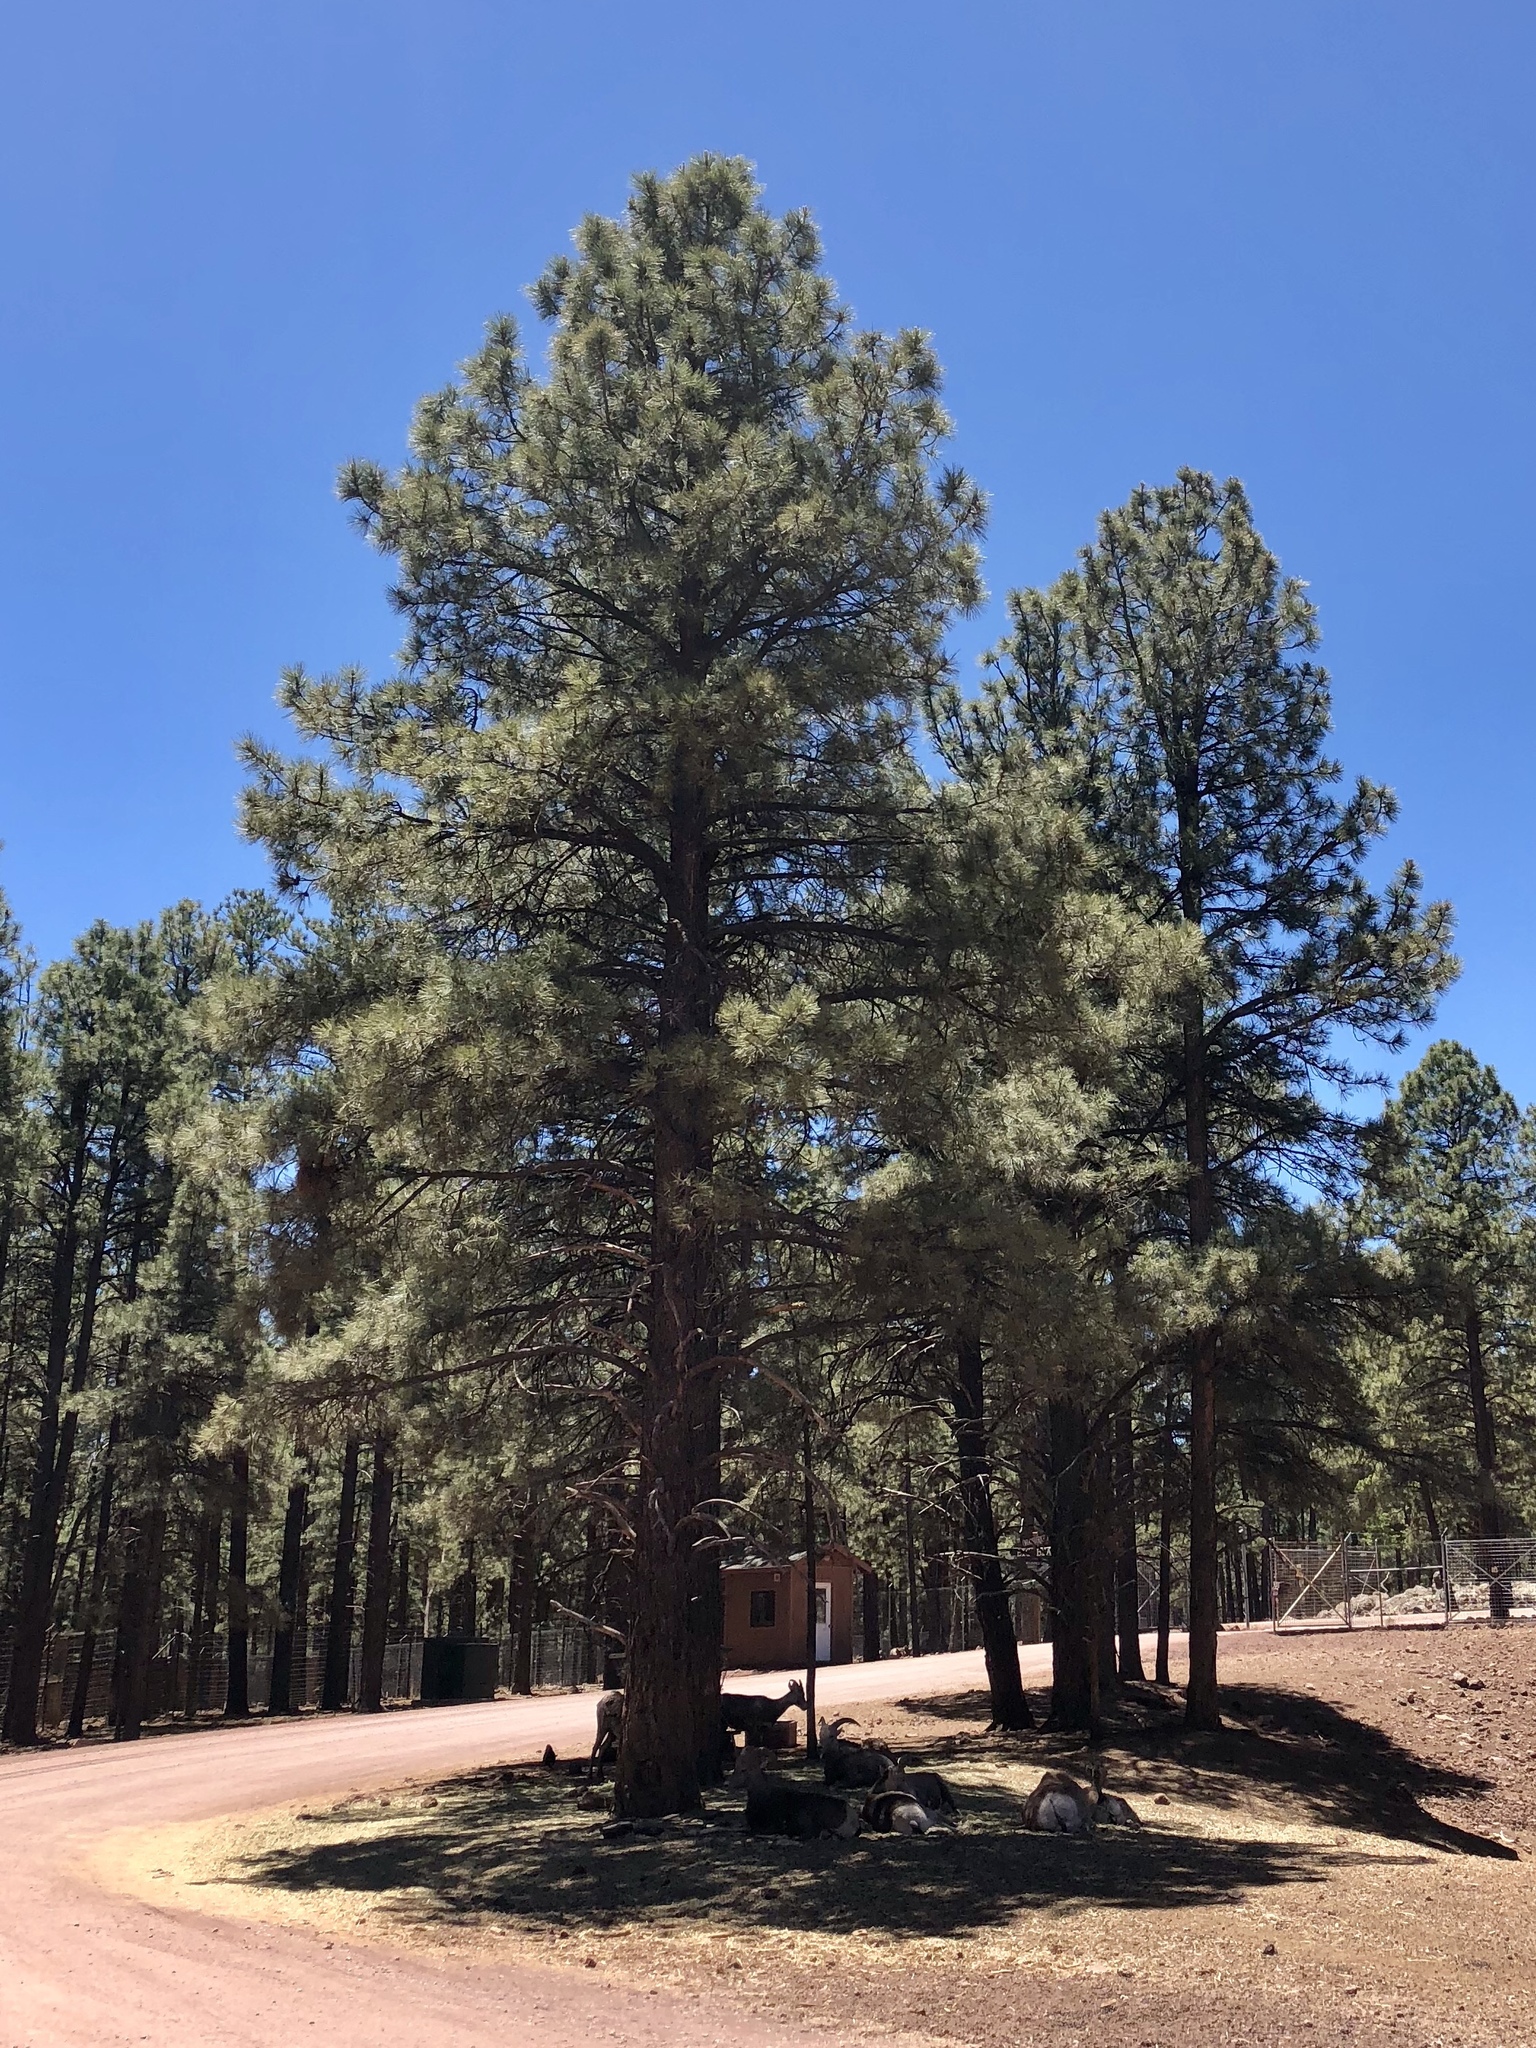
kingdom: Plantae
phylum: Tracheophyta
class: Pinopsida
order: Pinales
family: Pinaceae
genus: Pinus
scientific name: Pinus ponderosa
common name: Western yellow-pine
